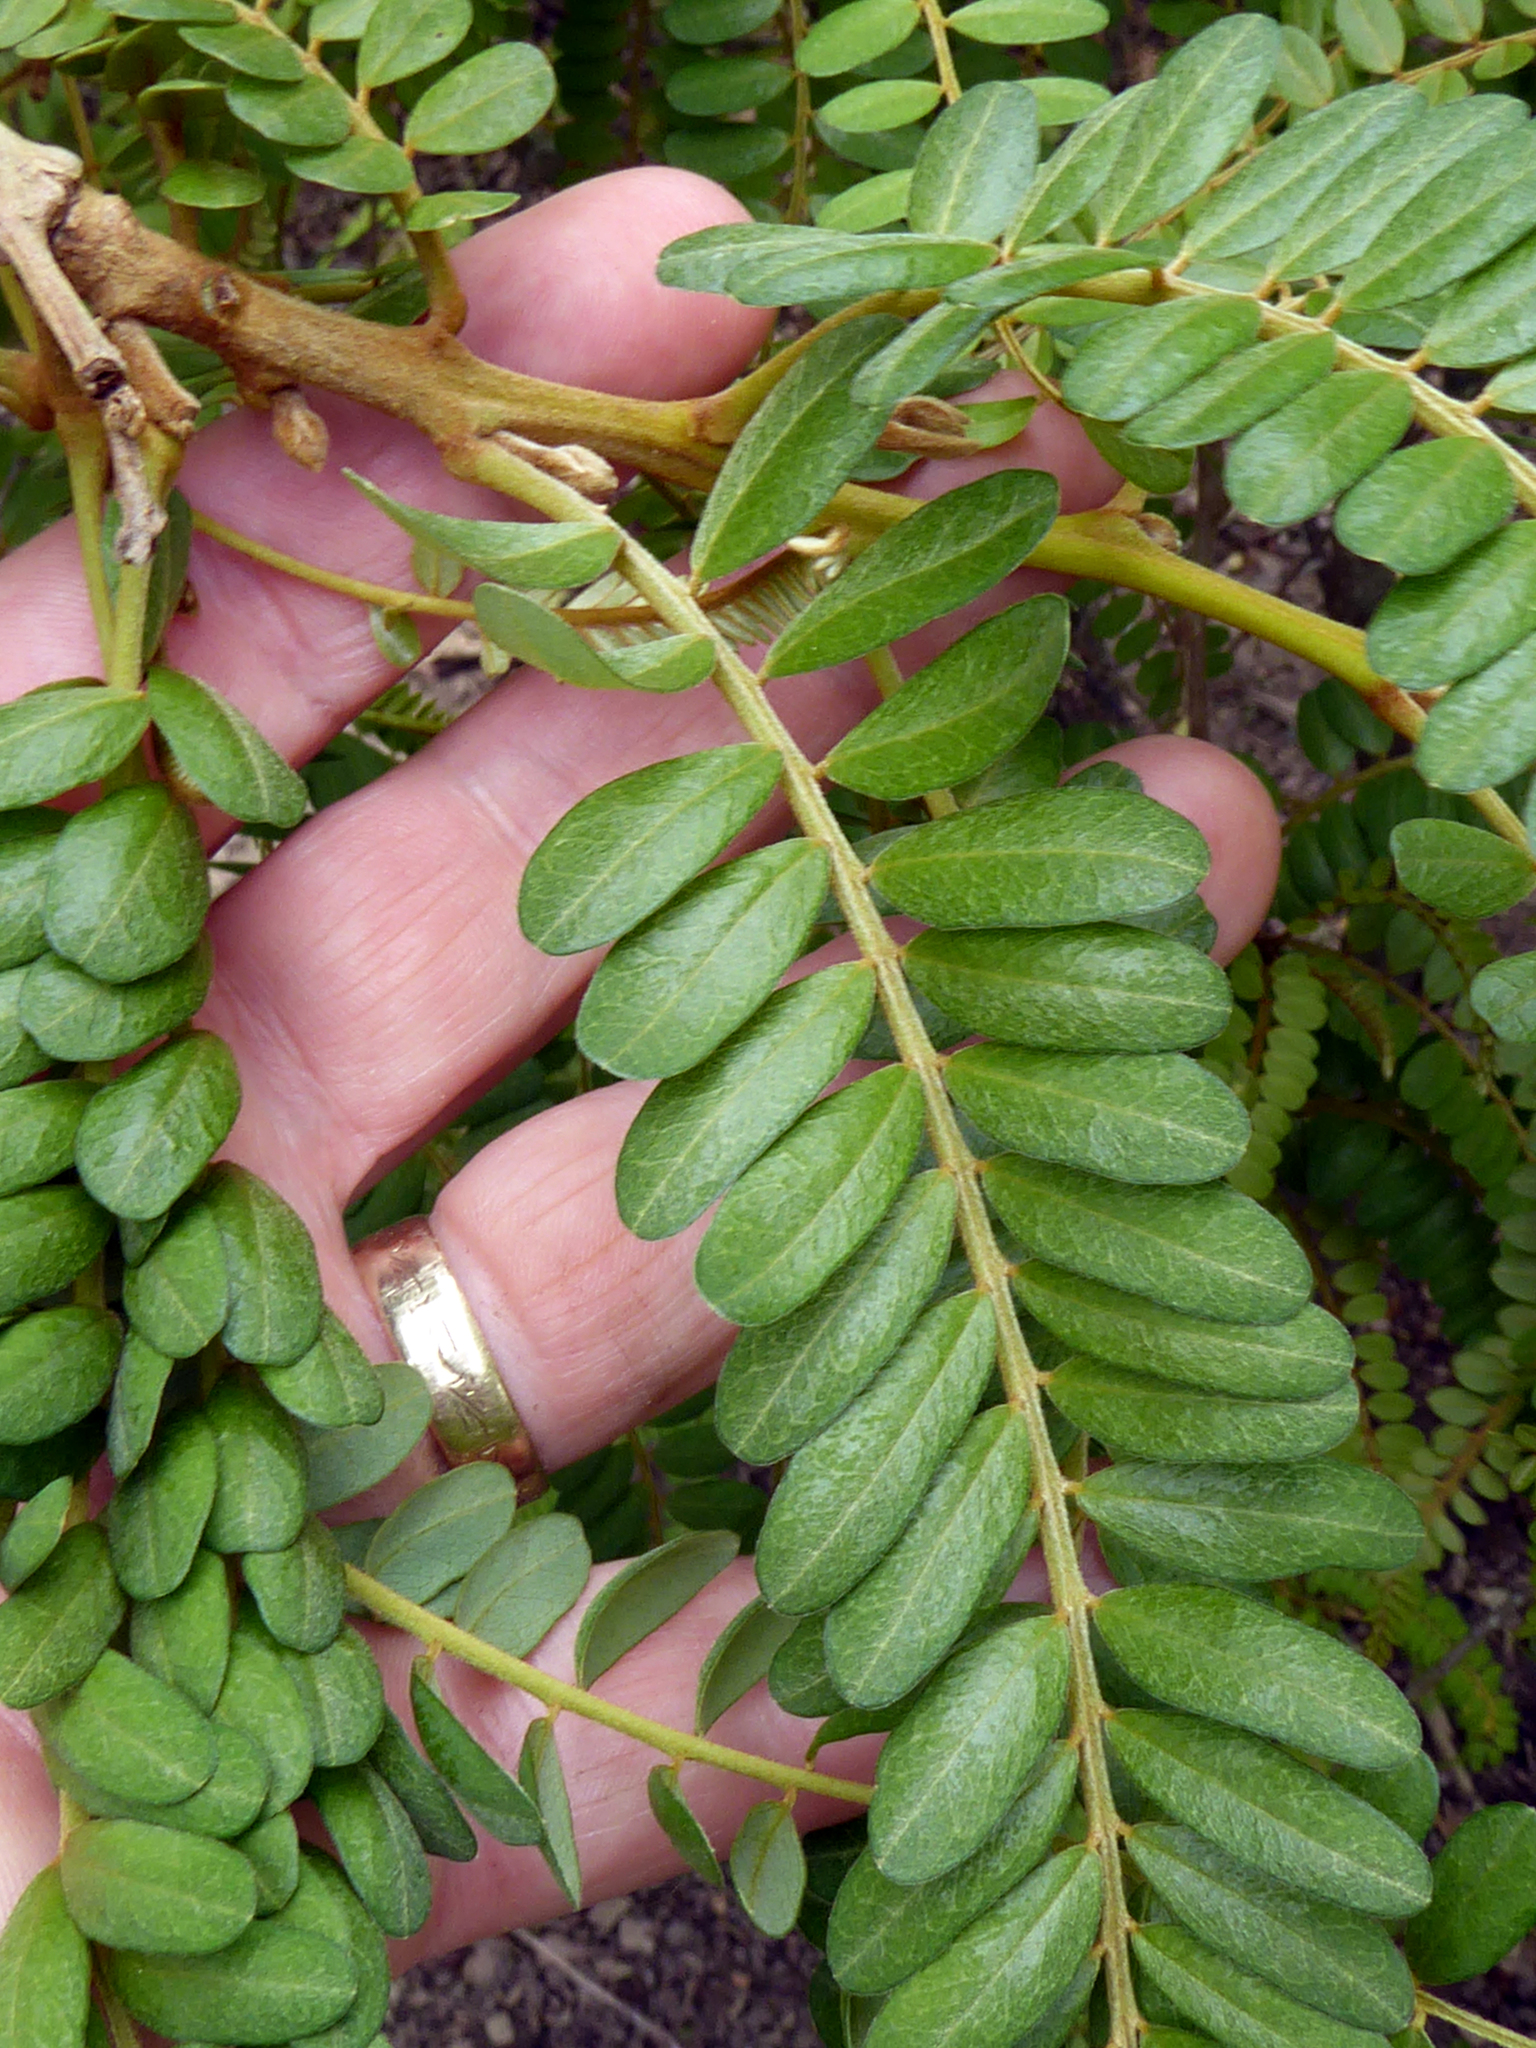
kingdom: Plantae
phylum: Tracheophyta
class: Magnoliopsida
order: Fabales
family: Fabaceae
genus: Sophora
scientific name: Sophora chathamica
